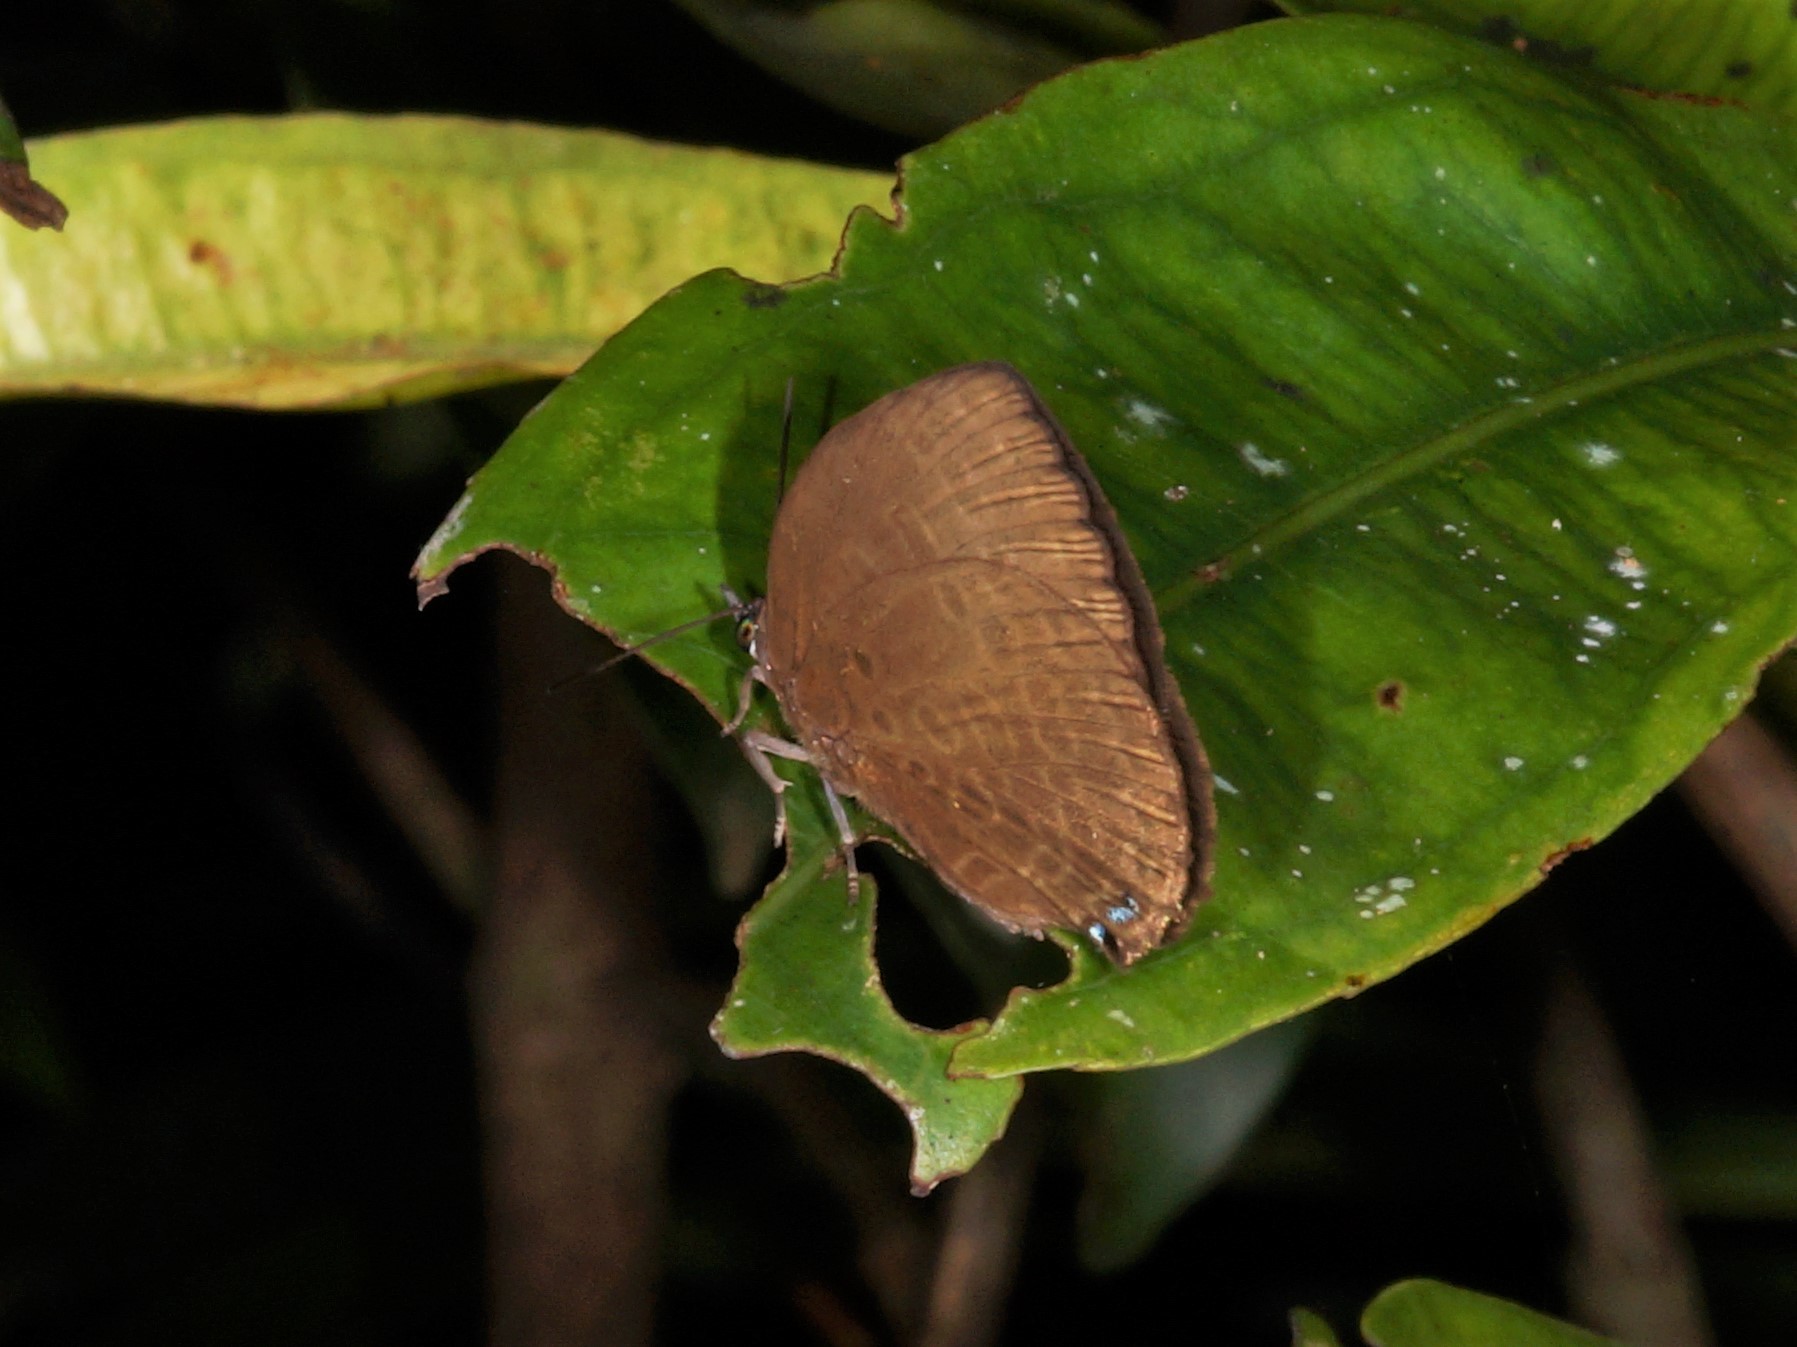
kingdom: Animalia
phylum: Arthropoda
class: Insecta
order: Lepidoptera
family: Lycaenidae
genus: Arhopala
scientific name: Arhopala avatha
